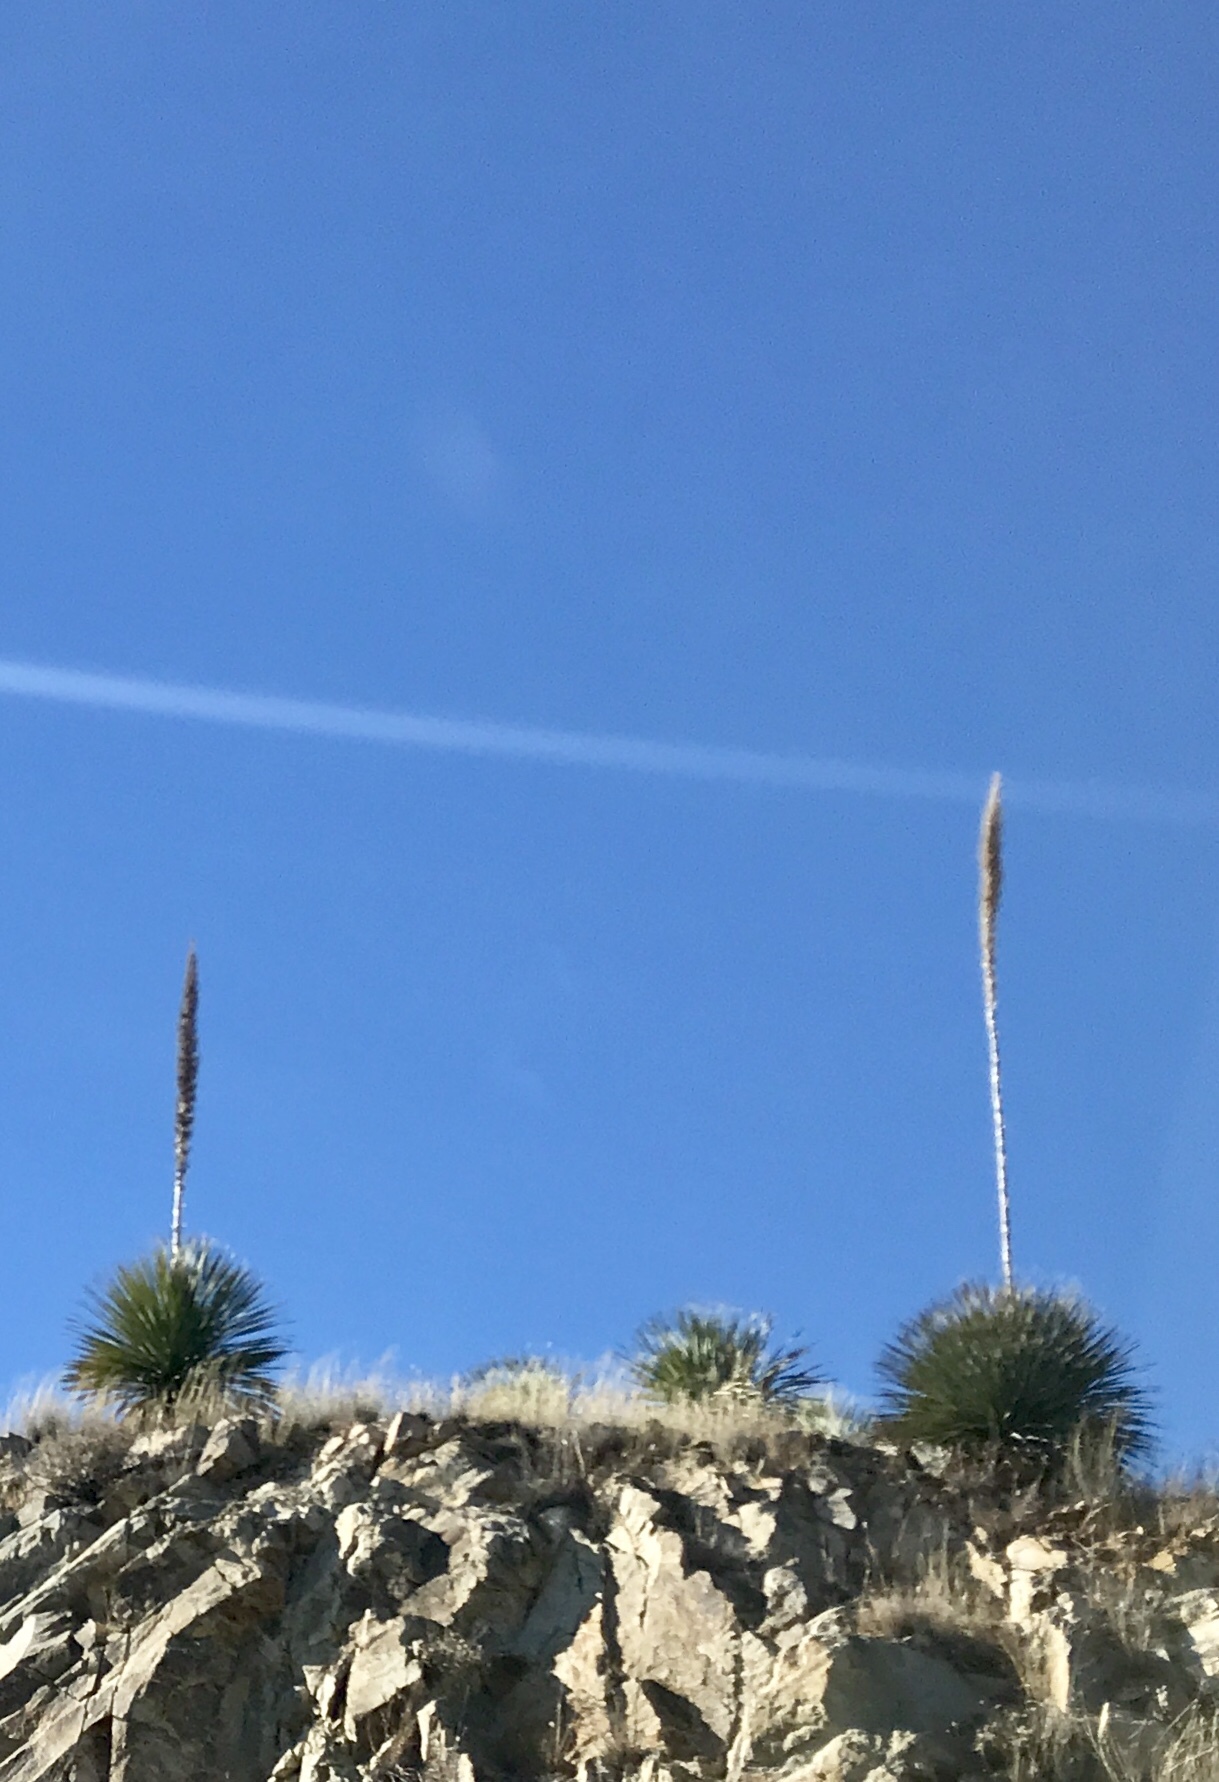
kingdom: Plantae
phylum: Tracheophyta
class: Liliopsida
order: Asparagales
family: Asparagaceae
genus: Dasylirion
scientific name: Dasylirion wheeleri
